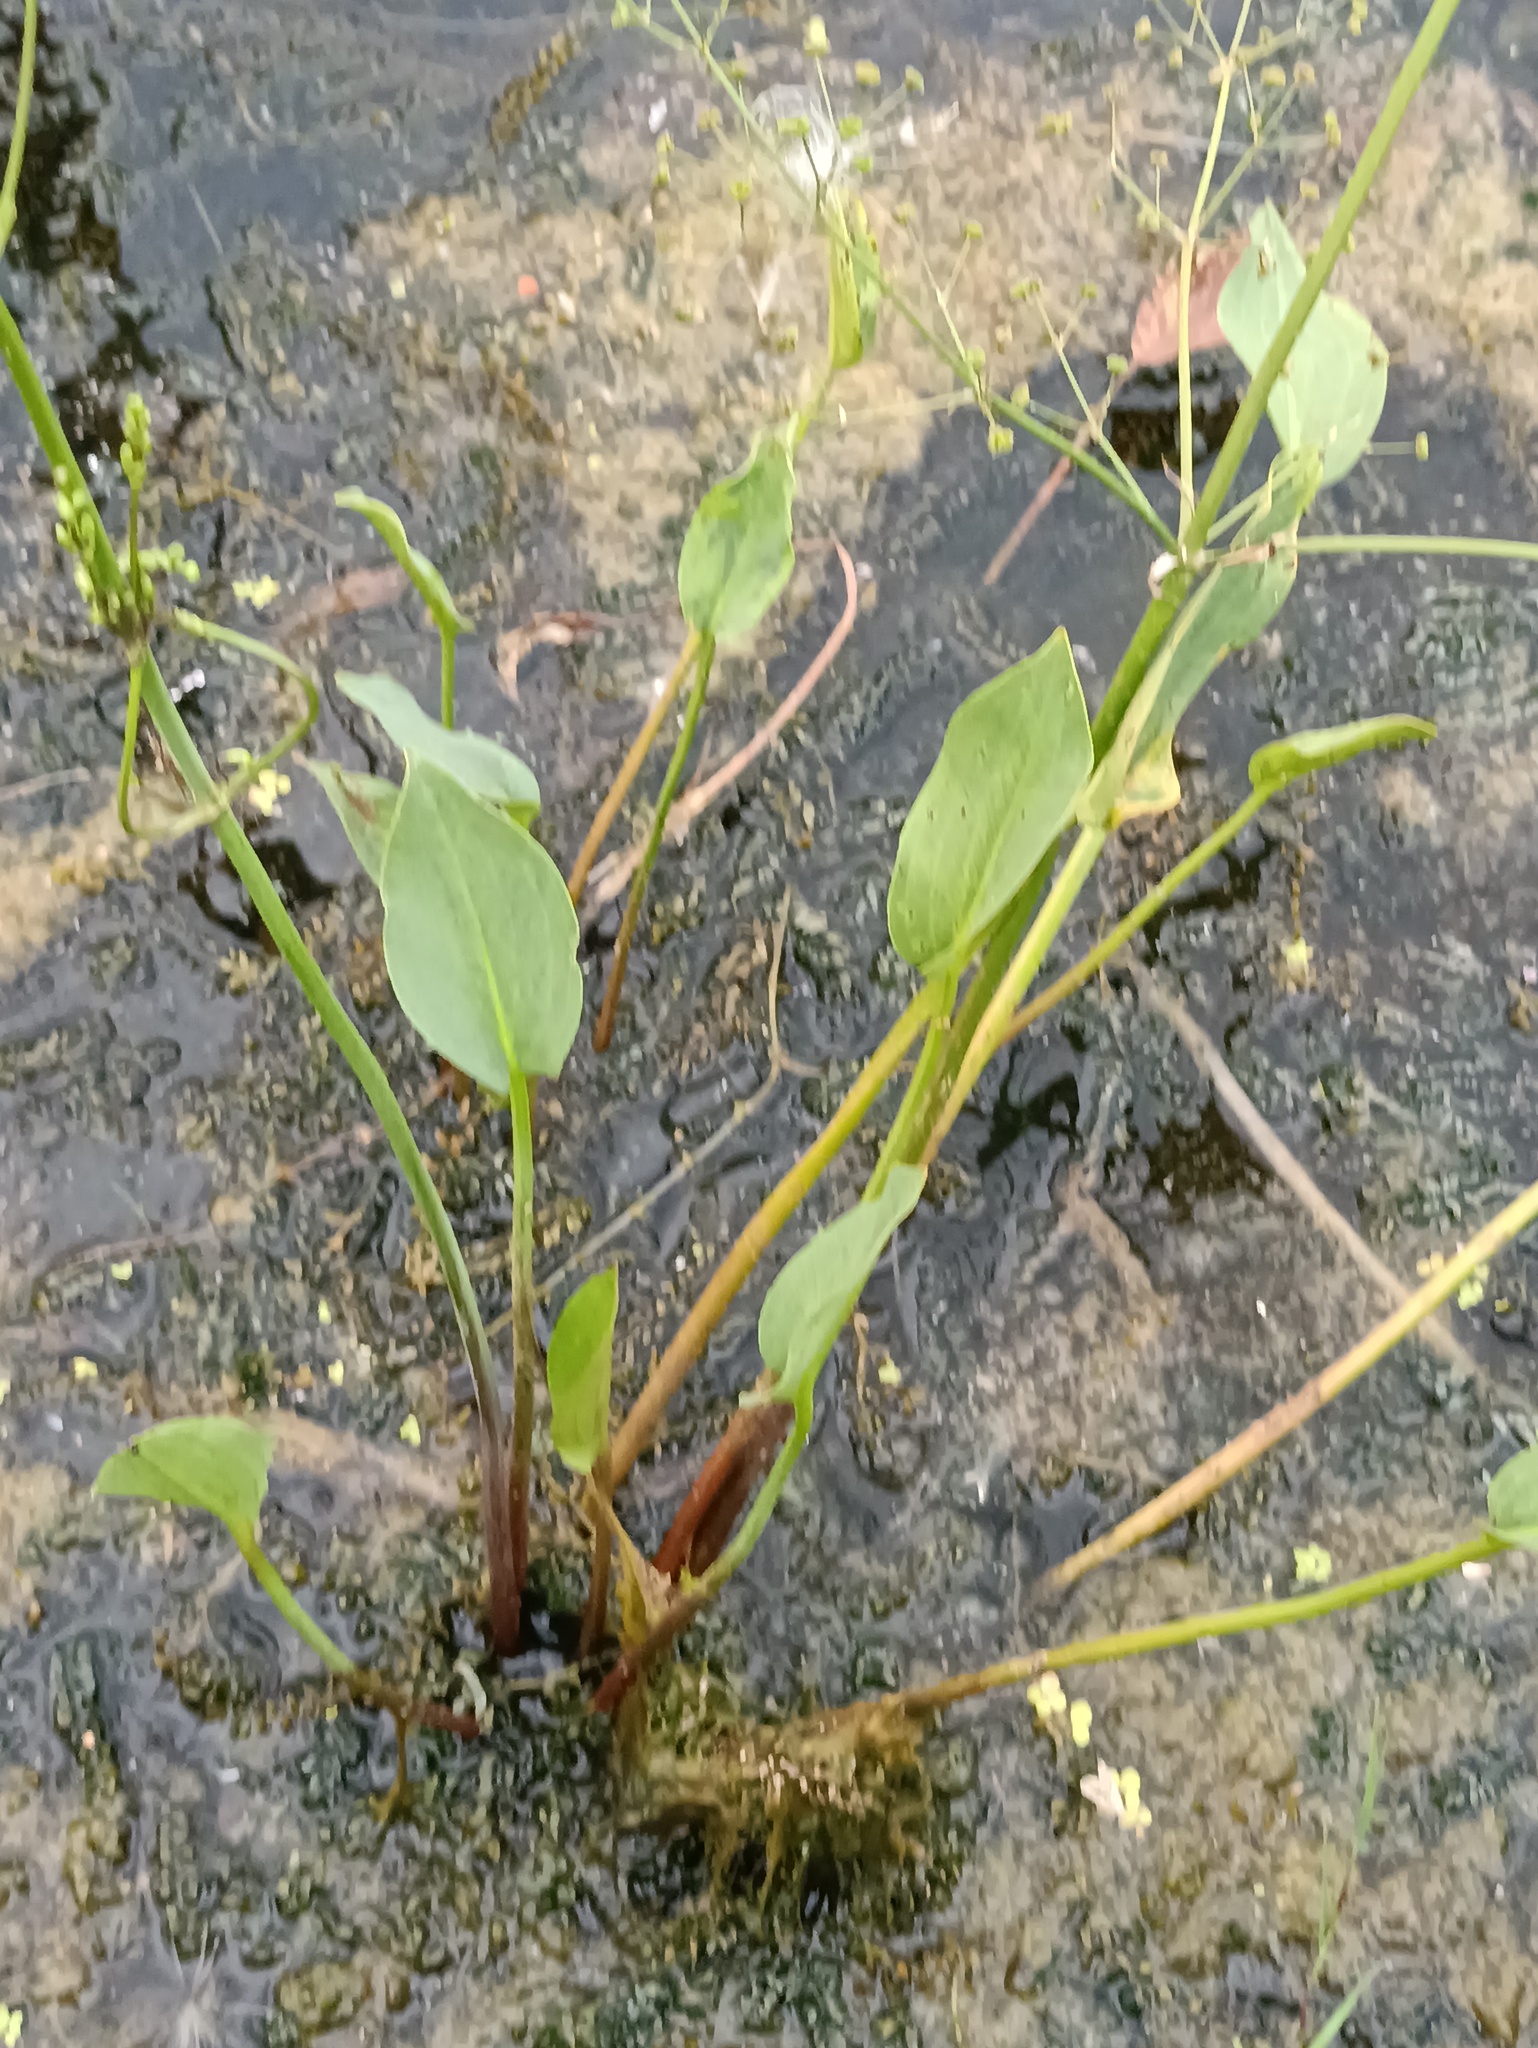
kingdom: Plantae
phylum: Tracheophyta
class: Liliopsida
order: Alismatales
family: Alismataceae
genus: Alisma
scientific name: Alisma plantago-aquatica
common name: Water-plantain
